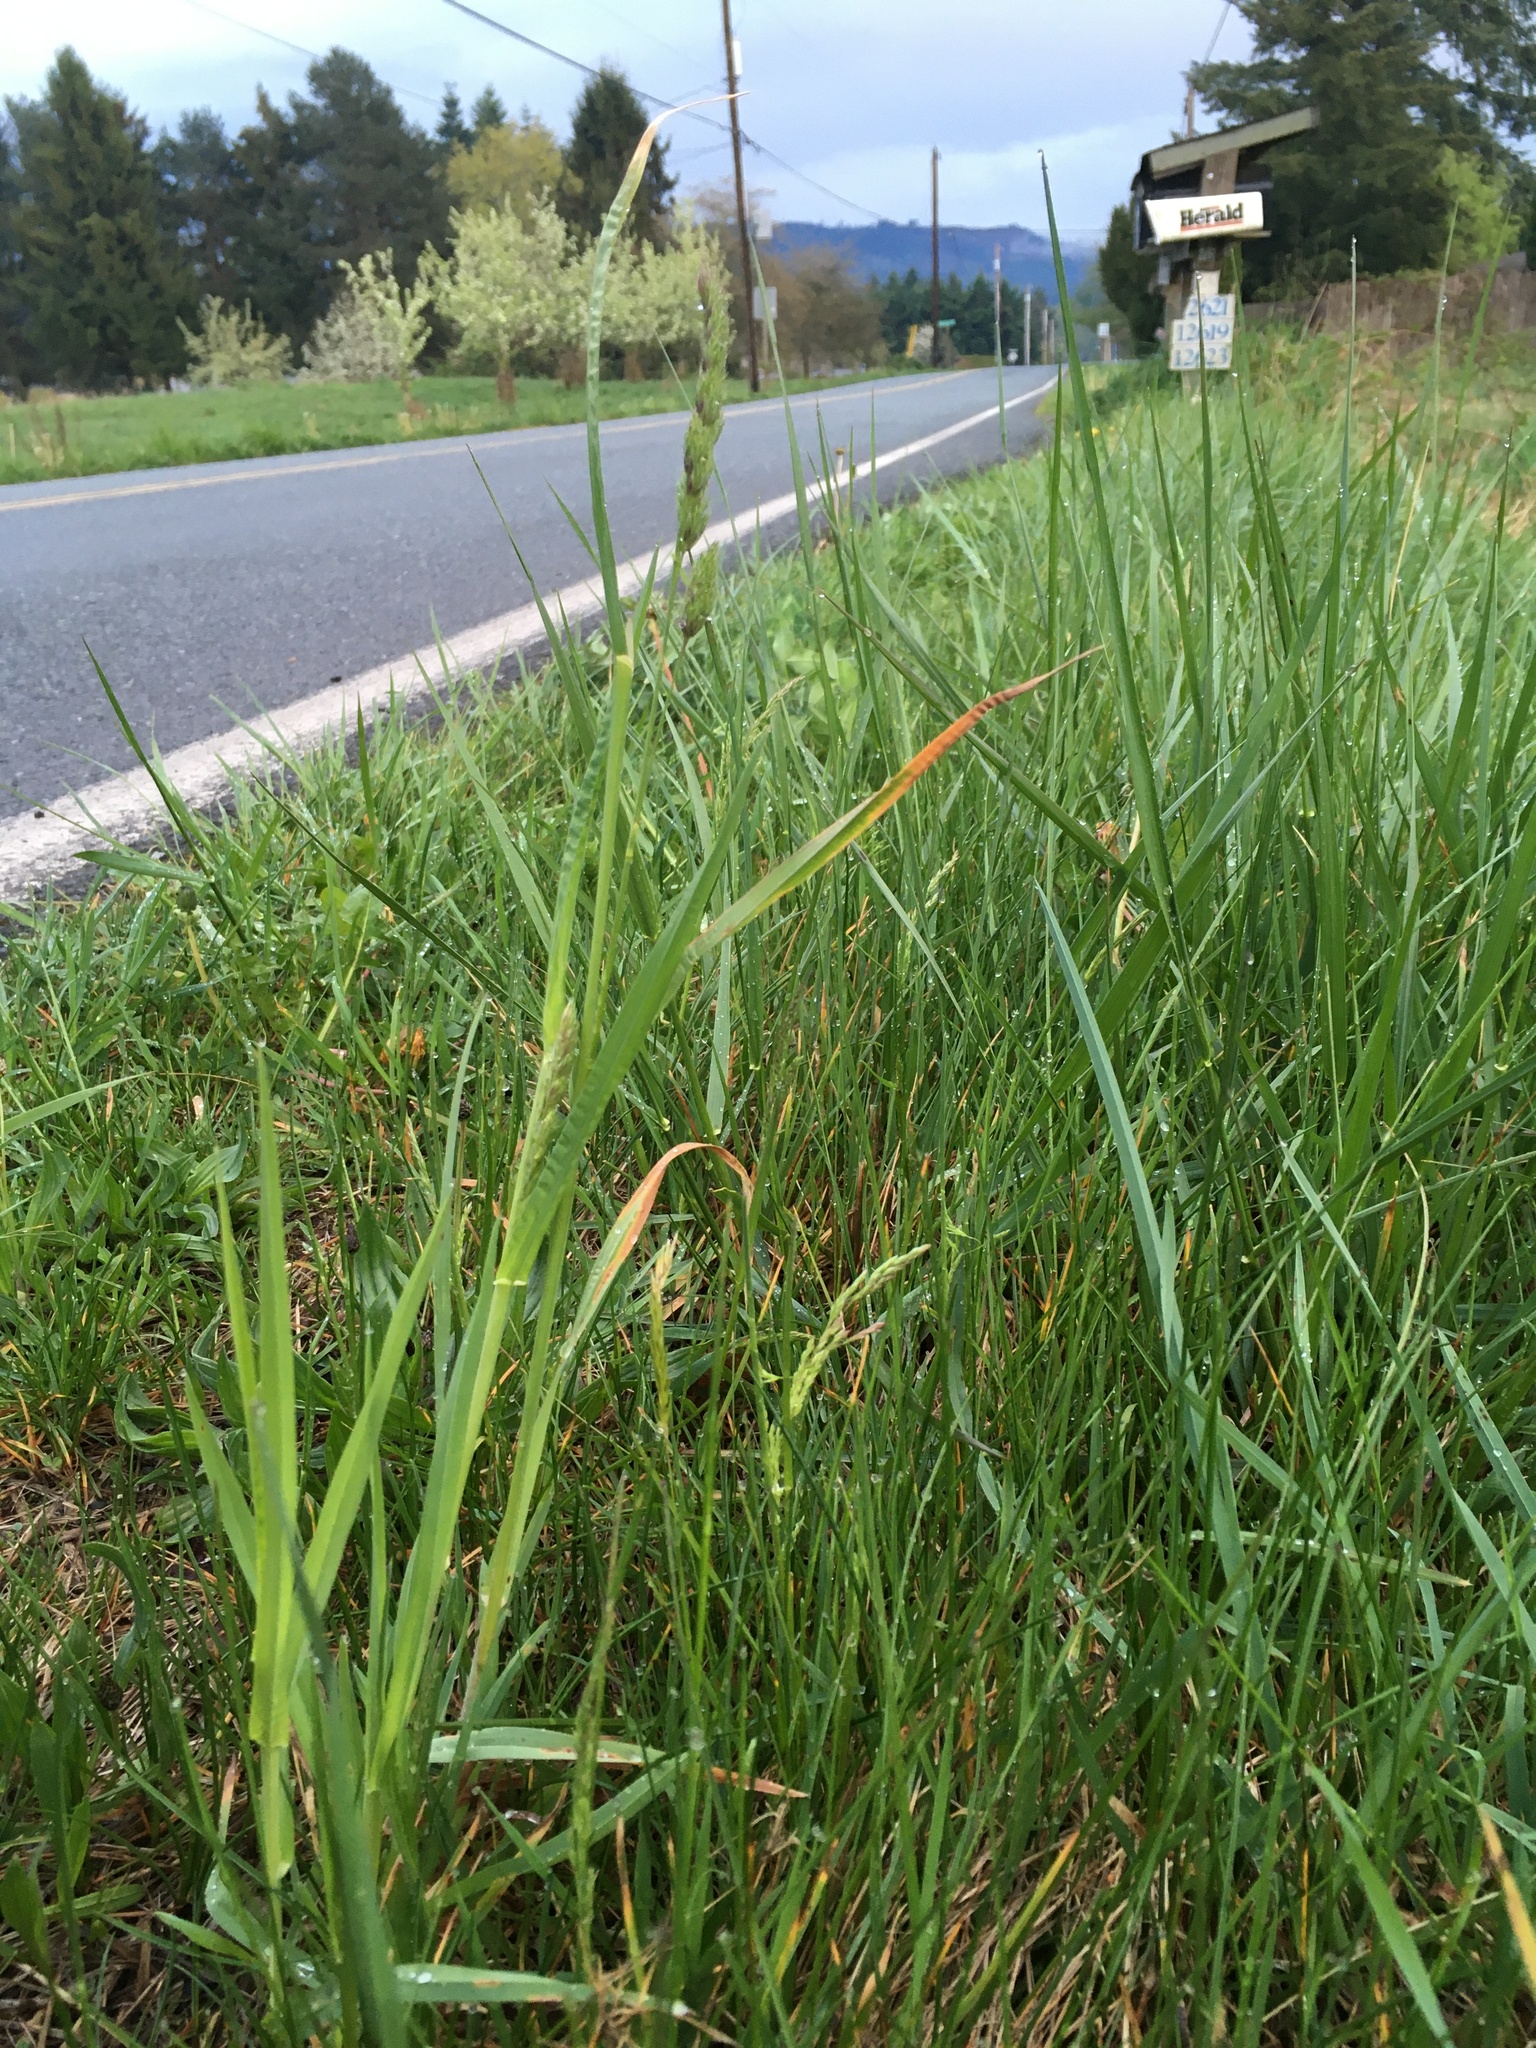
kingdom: Plantae
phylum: Tracheophyta
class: Liliopsida
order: Poales
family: Poaceae
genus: Dactylis
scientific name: Dactylis glomerata
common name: Orchardgrass
